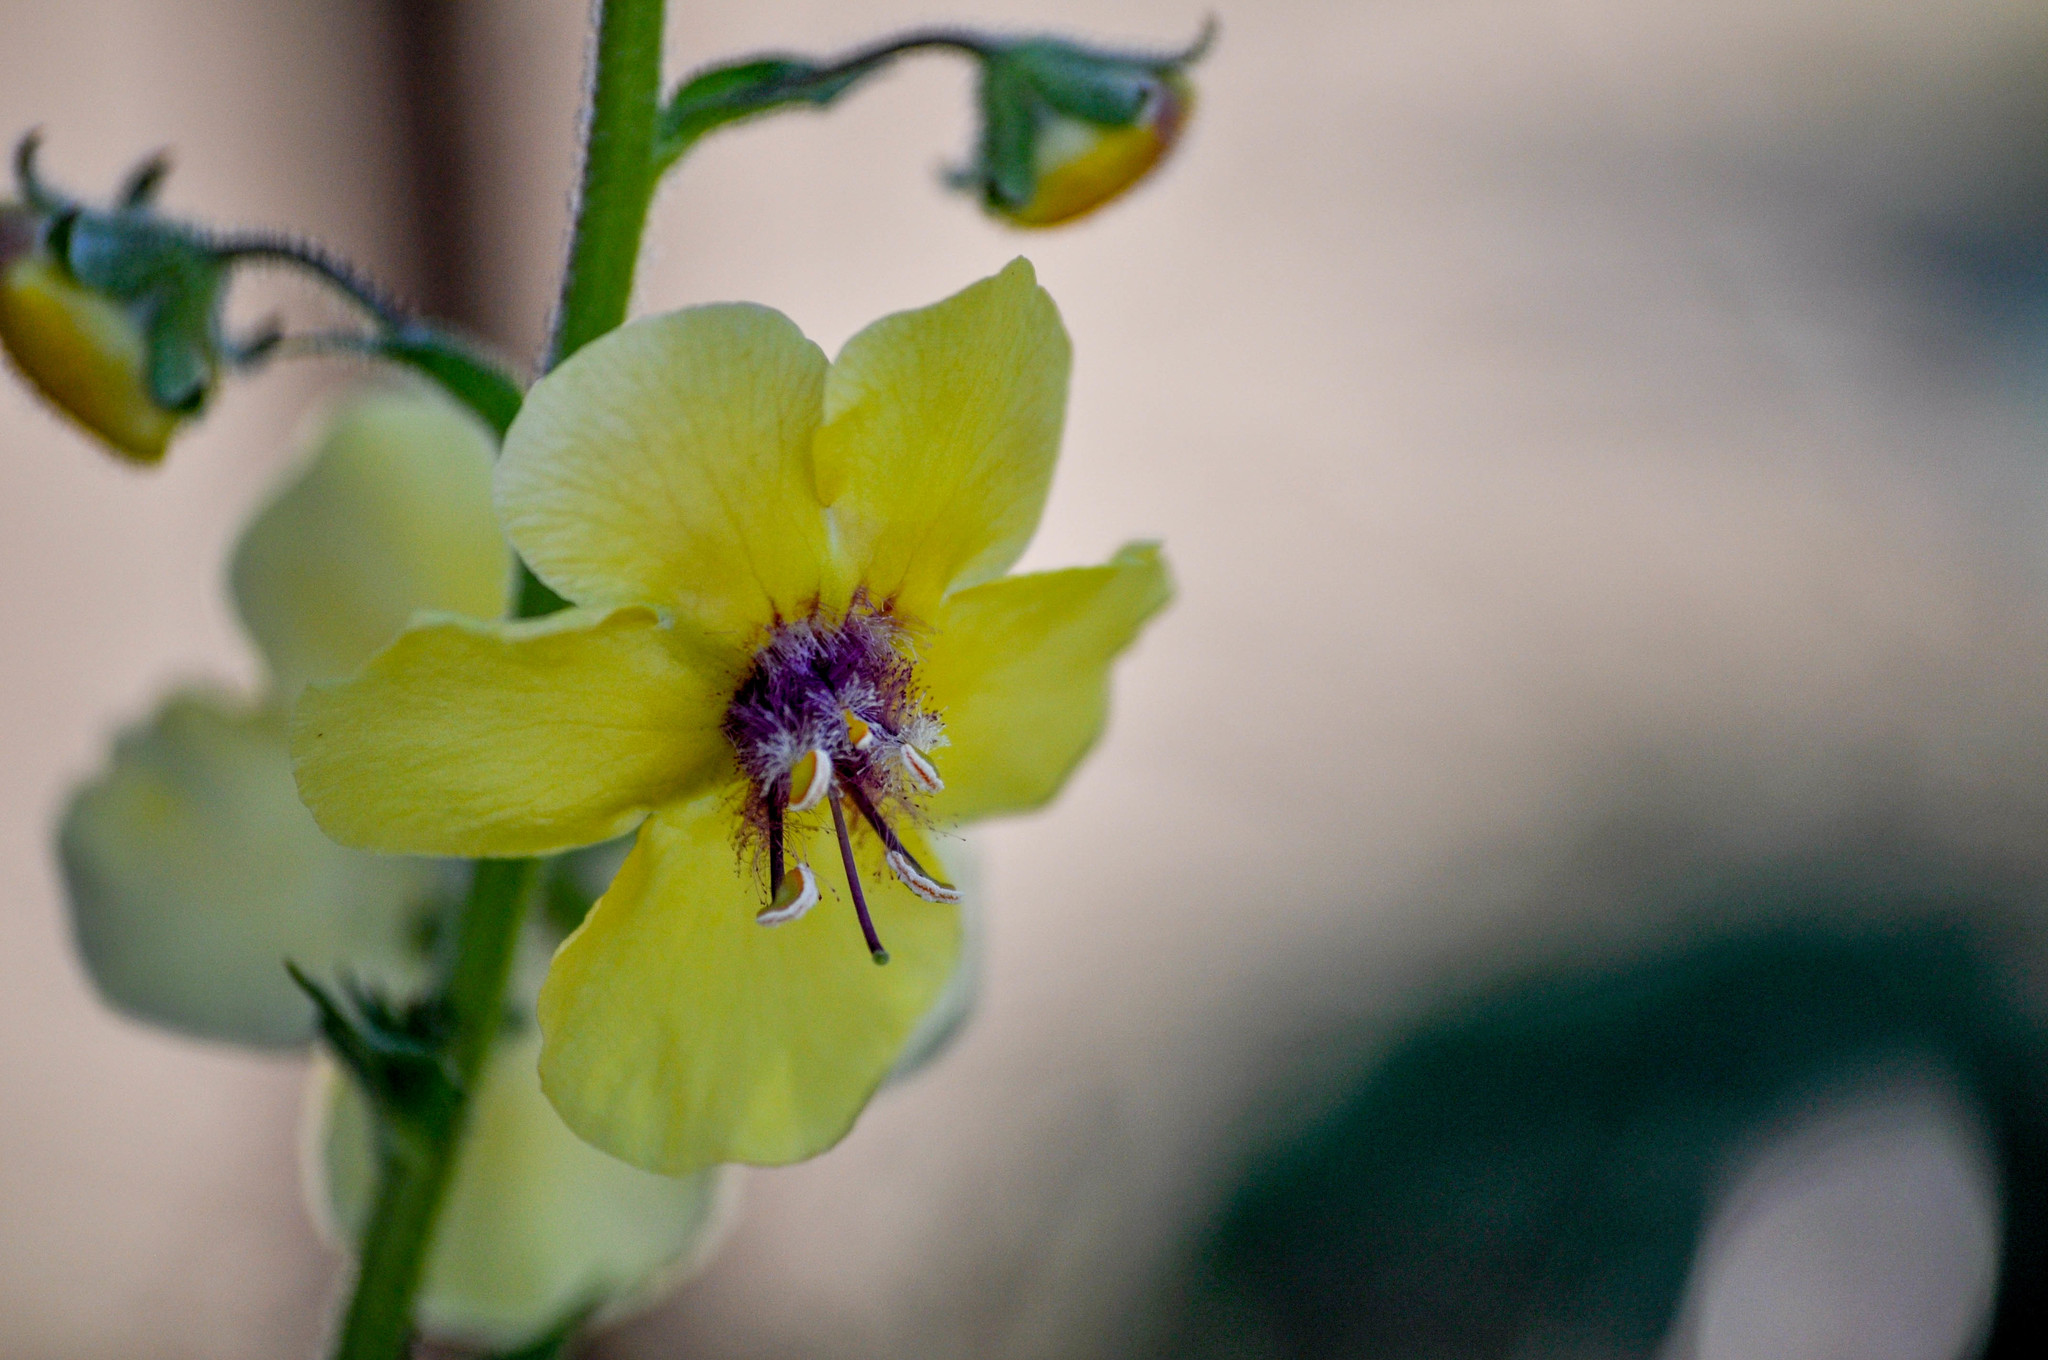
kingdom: Plantae
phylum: Tracheophyta
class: Magnoliopsida
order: Lamiales
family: Scrophulariaceae
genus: Verbascum
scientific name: Verbascum blattaria
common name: Moth mullein
